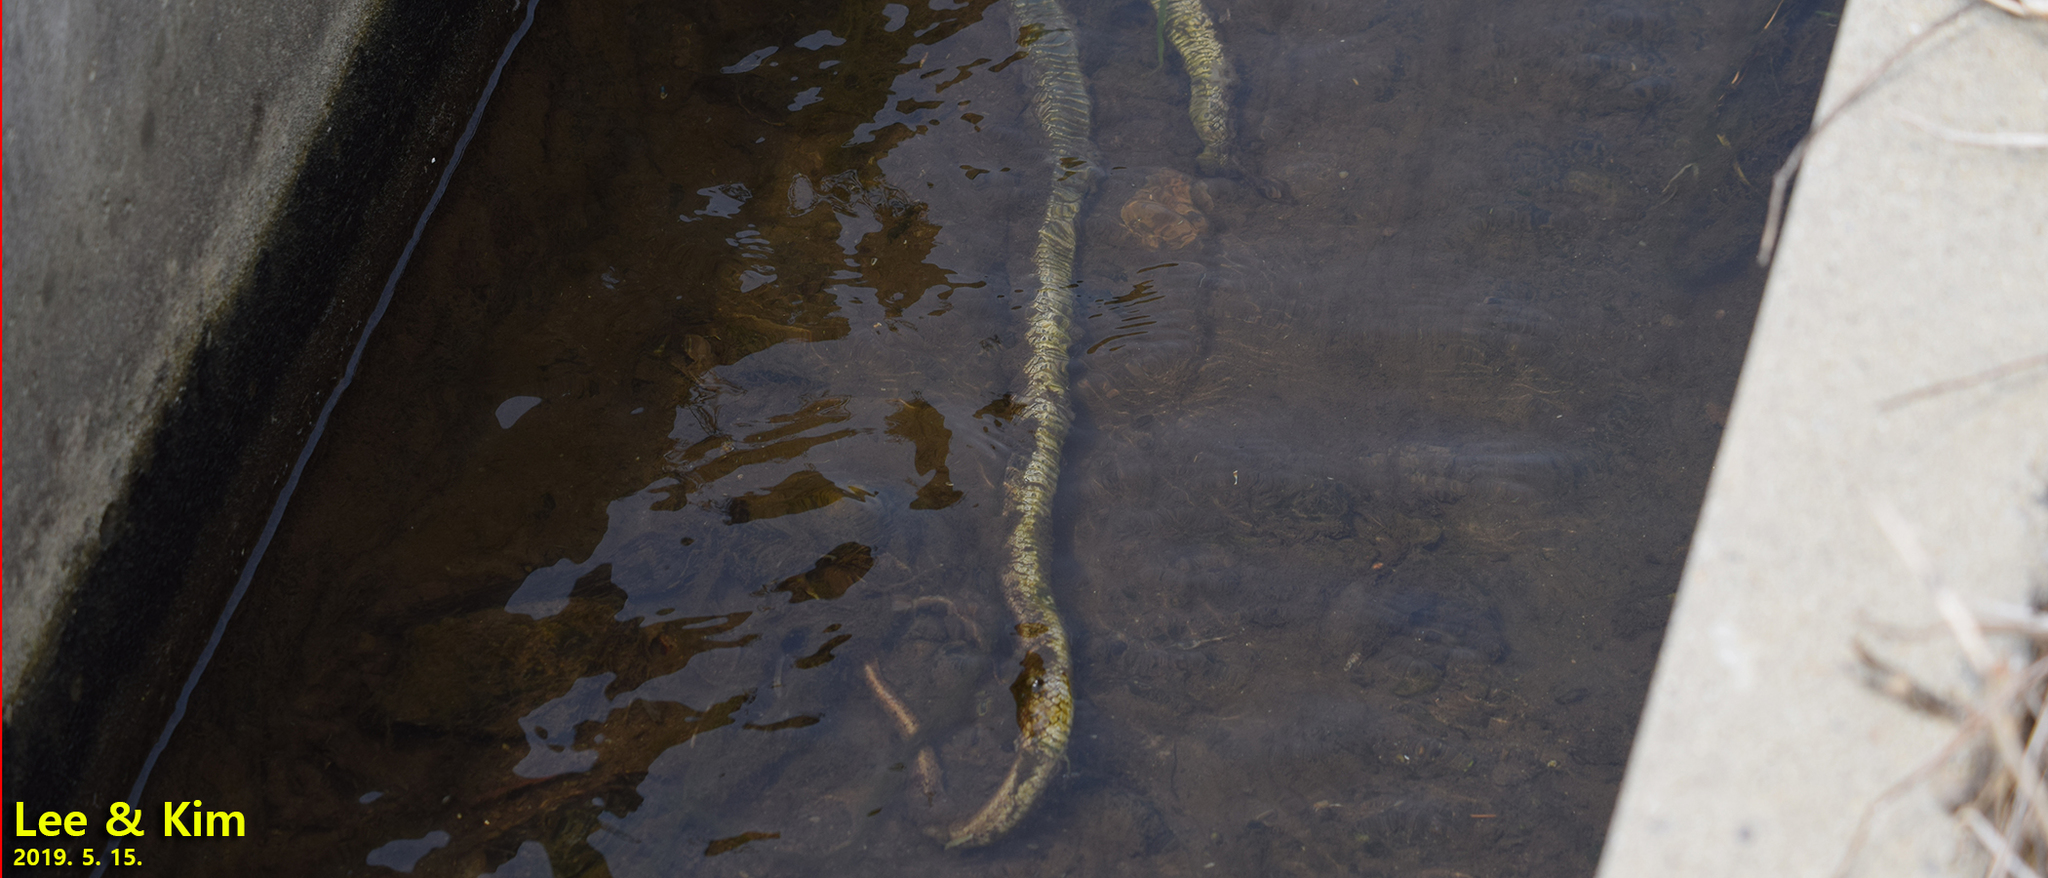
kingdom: Animalia
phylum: Chordata
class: Squamata
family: Colubridae
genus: Elaphe
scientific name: Elaphe dione
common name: Dione ratsnake
